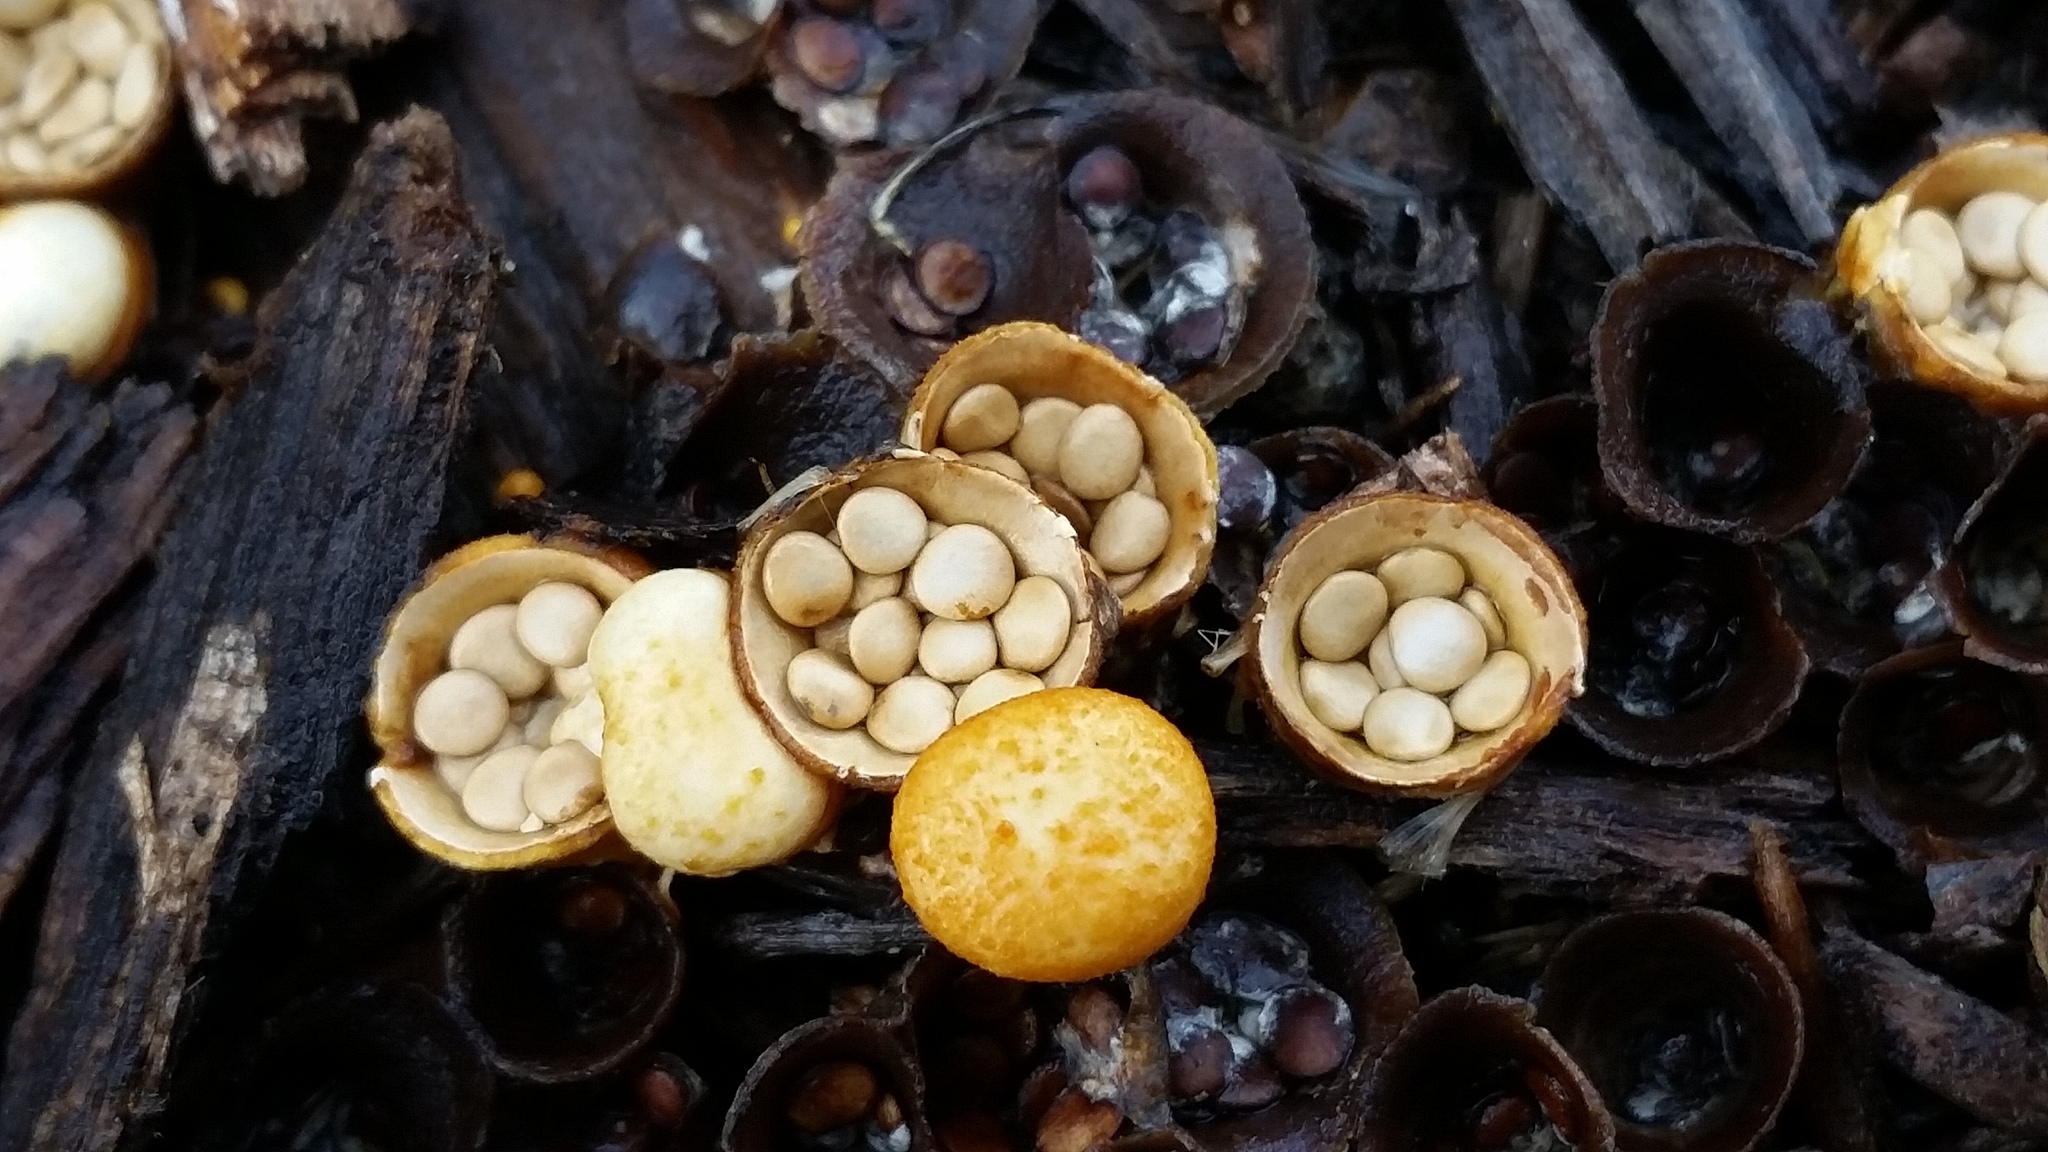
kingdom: Fungi
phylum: Basidiomycota
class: Agaricomycetes
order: Agaricales
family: Nidulariaceae
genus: Crucibulum
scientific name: Crucibulum laeve
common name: Common bird's nest
